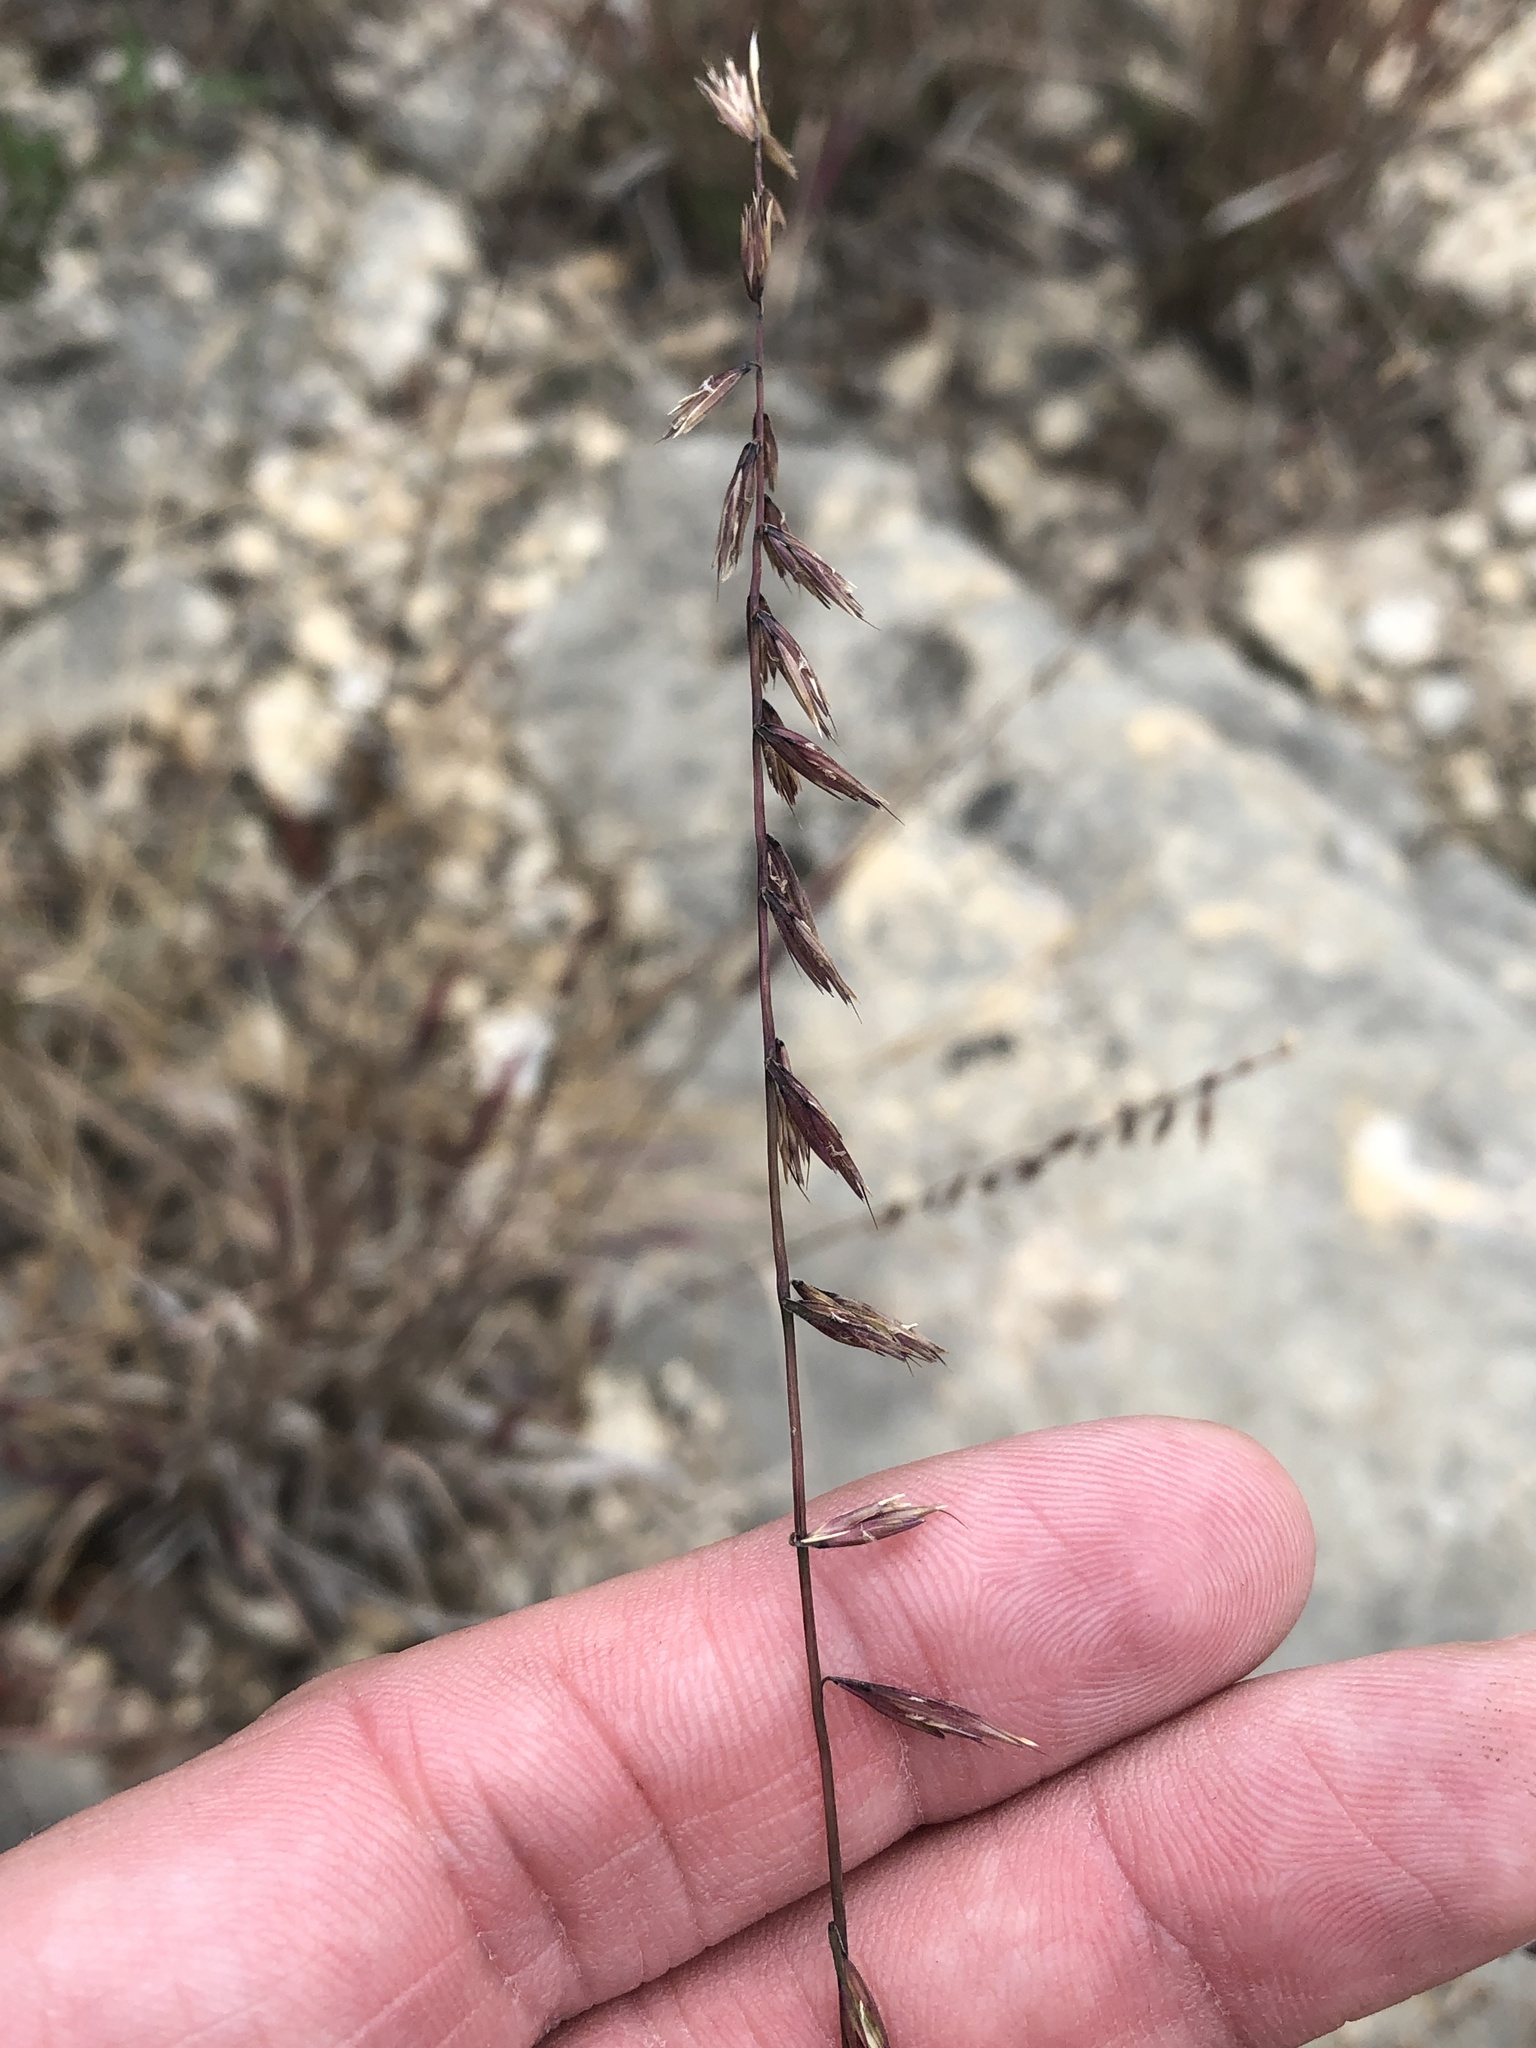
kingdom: Plantae
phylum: Tracheophyta
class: Liliopsida
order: Poales
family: Poaceae
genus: Bouteloua
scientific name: Bouteloua curtipendula
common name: Side-oats grama
